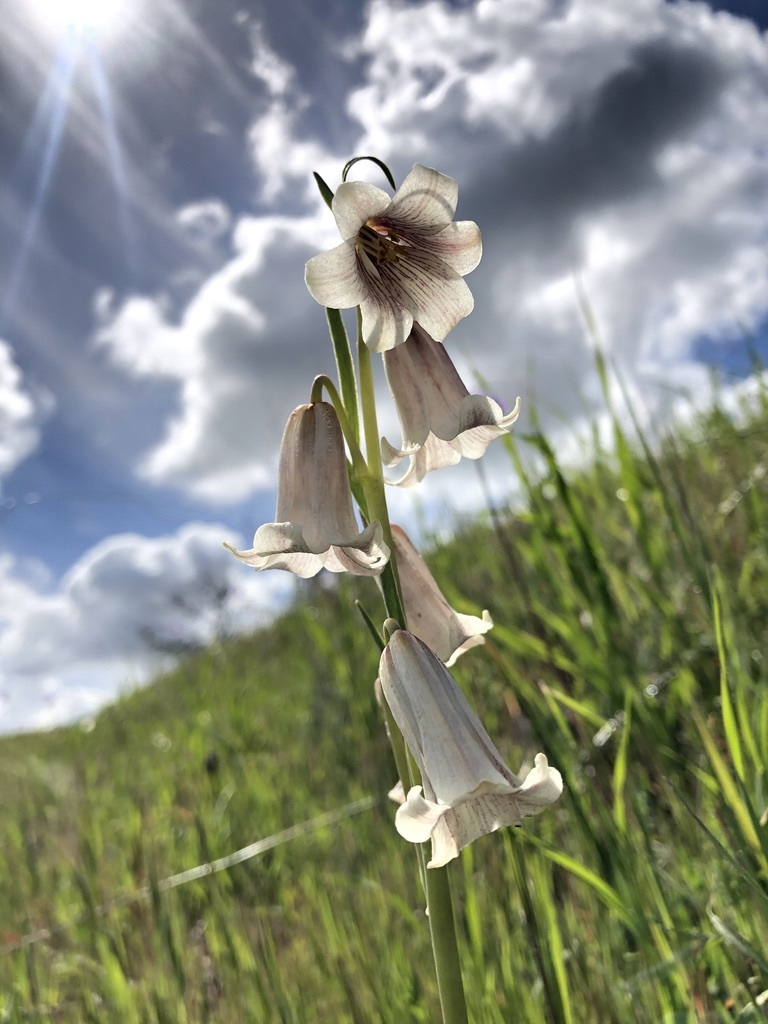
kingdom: Plantae
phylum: Tracheophyta
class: Liliopsida
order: Liliales
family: Liliaceae
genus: Fritillaria
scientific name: Fritillaria striata
